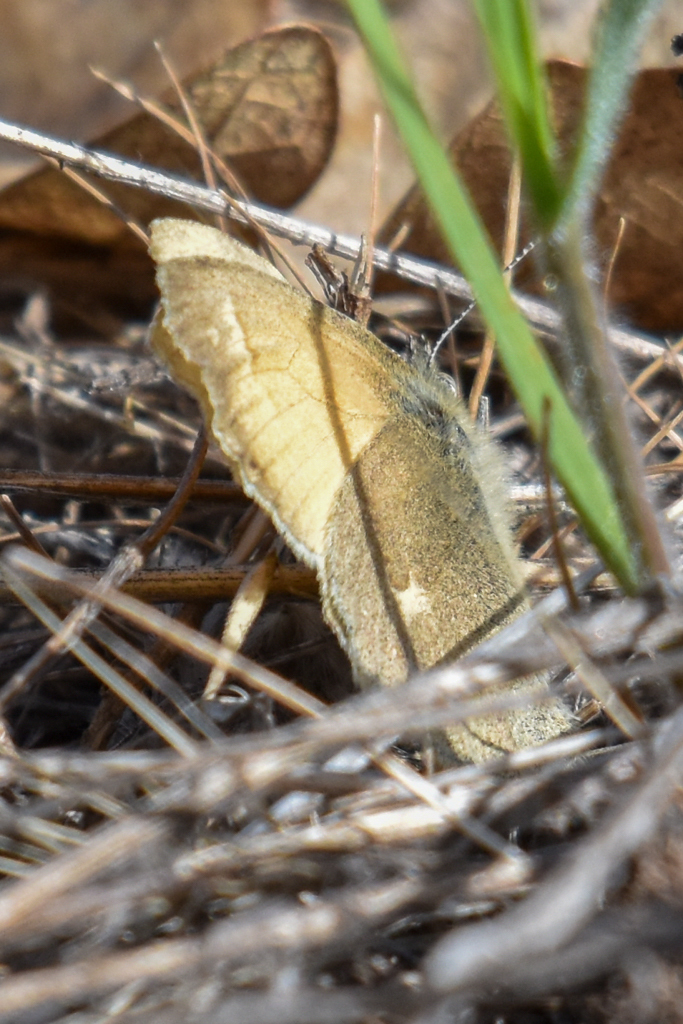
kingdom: Animalia
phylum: Arthropoda
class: Insecta
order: Lepidoptera
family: Nymphalidae
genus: Coenonympha
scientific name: Coenonympha california
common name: Common ringlet
